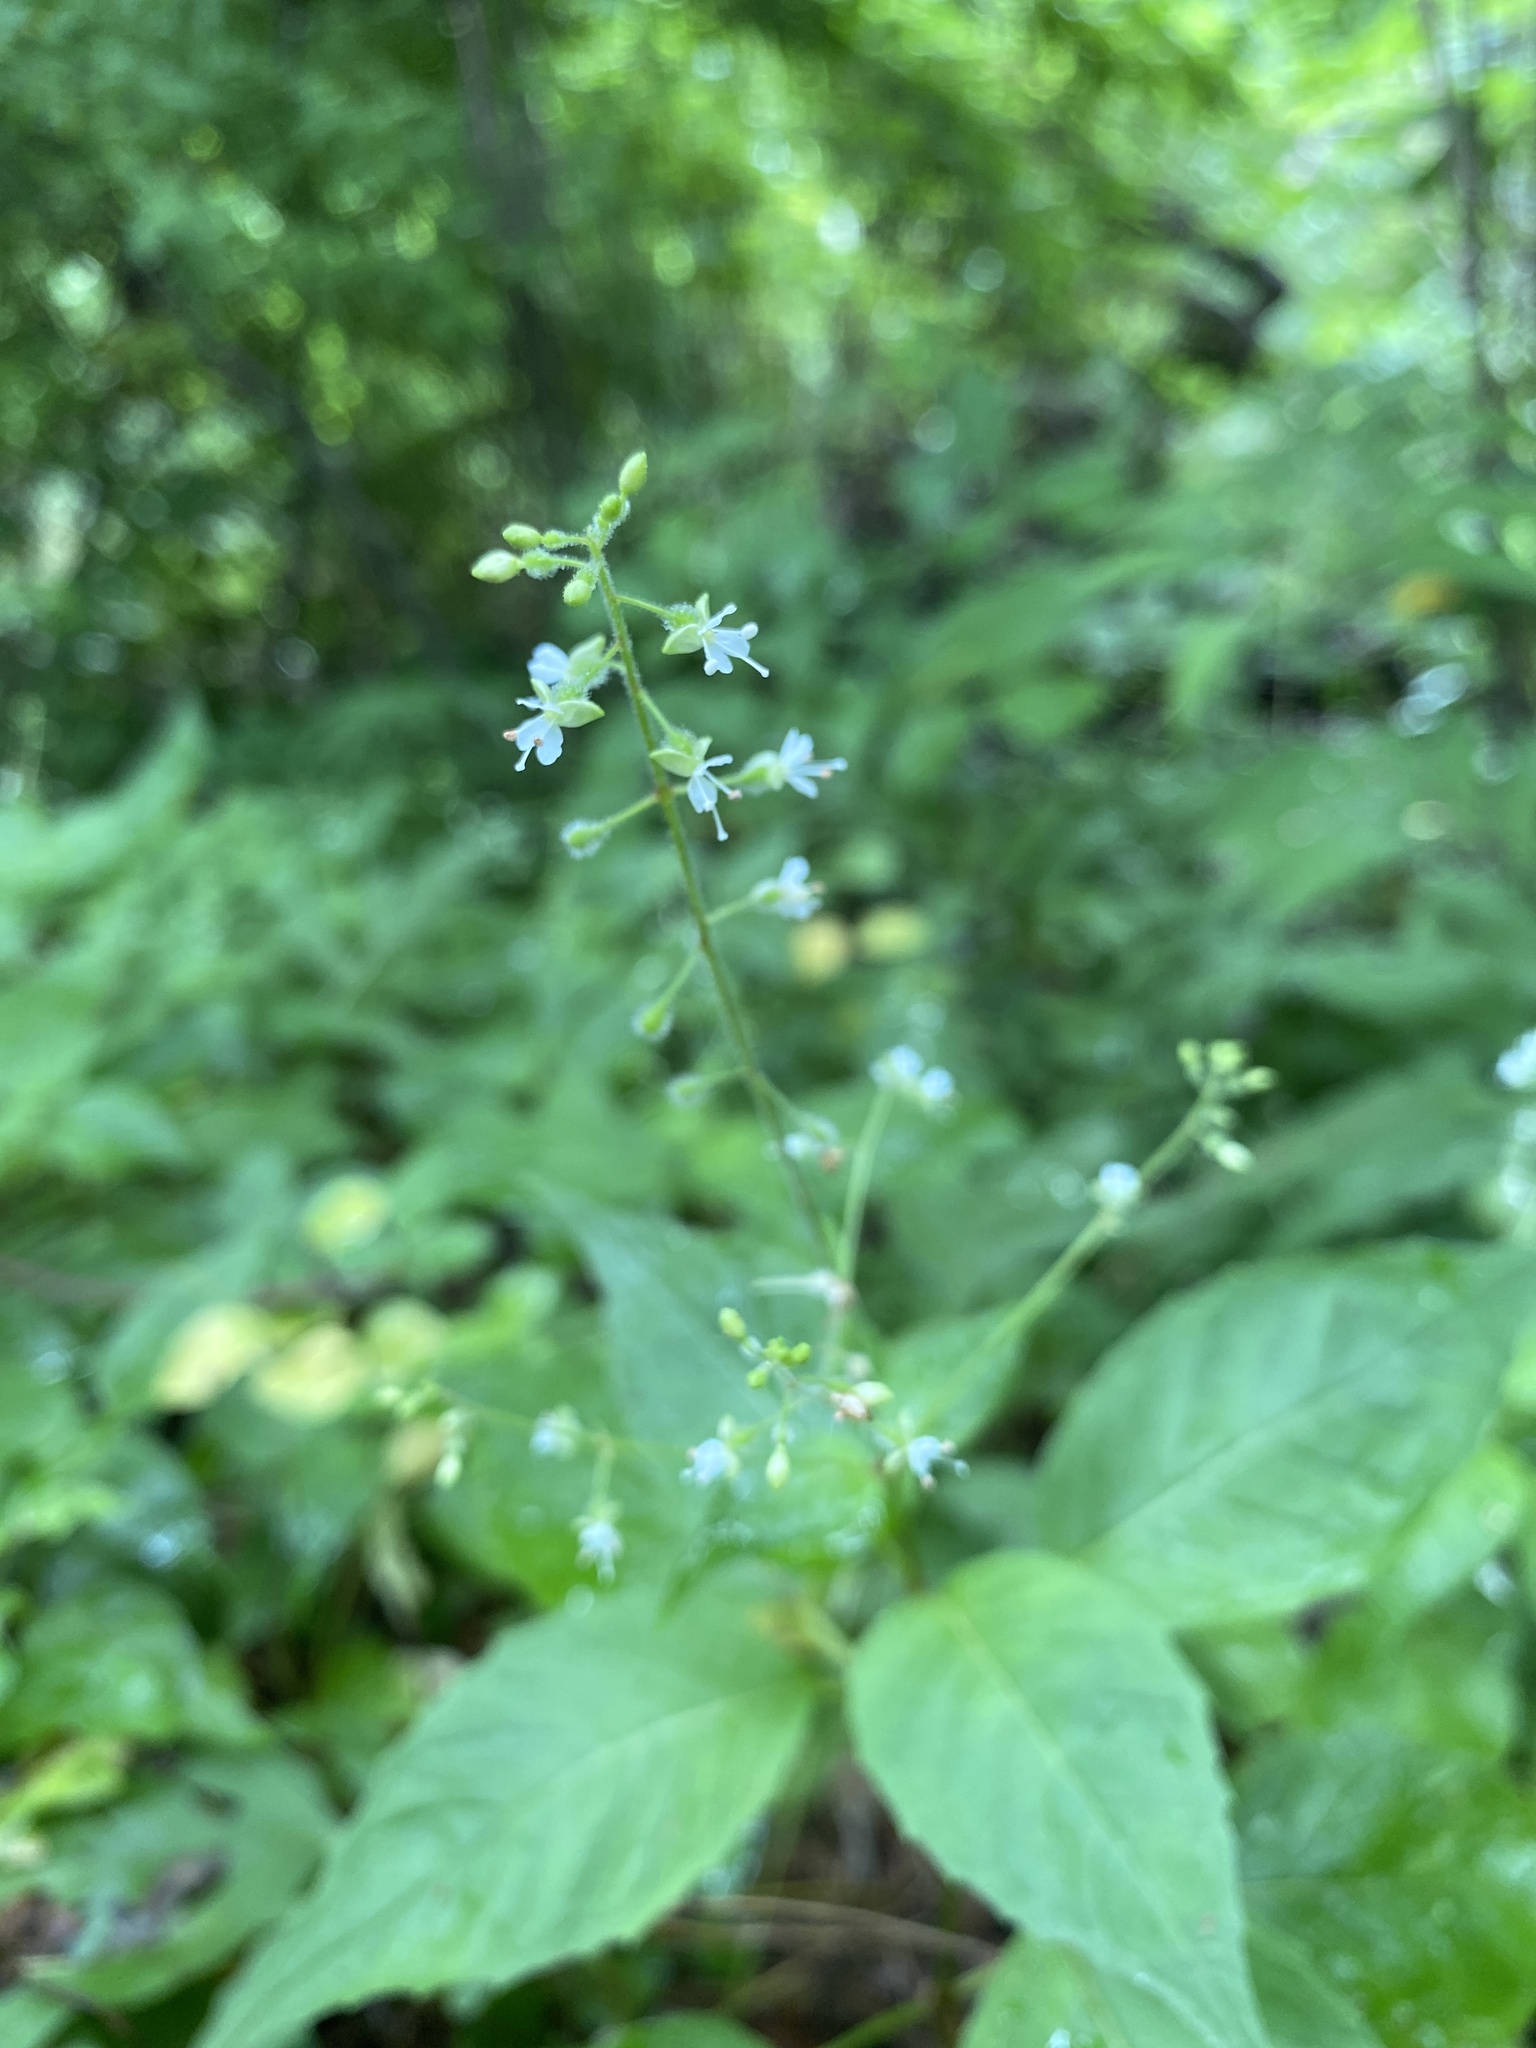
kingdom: Plantae
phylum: Tracheophyta
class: Magnoliopsida
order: Myrtales
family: Onagraceae
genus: Circaea
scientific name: Circaea canadensis
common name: Broad-leaved enchanter's nightshade
